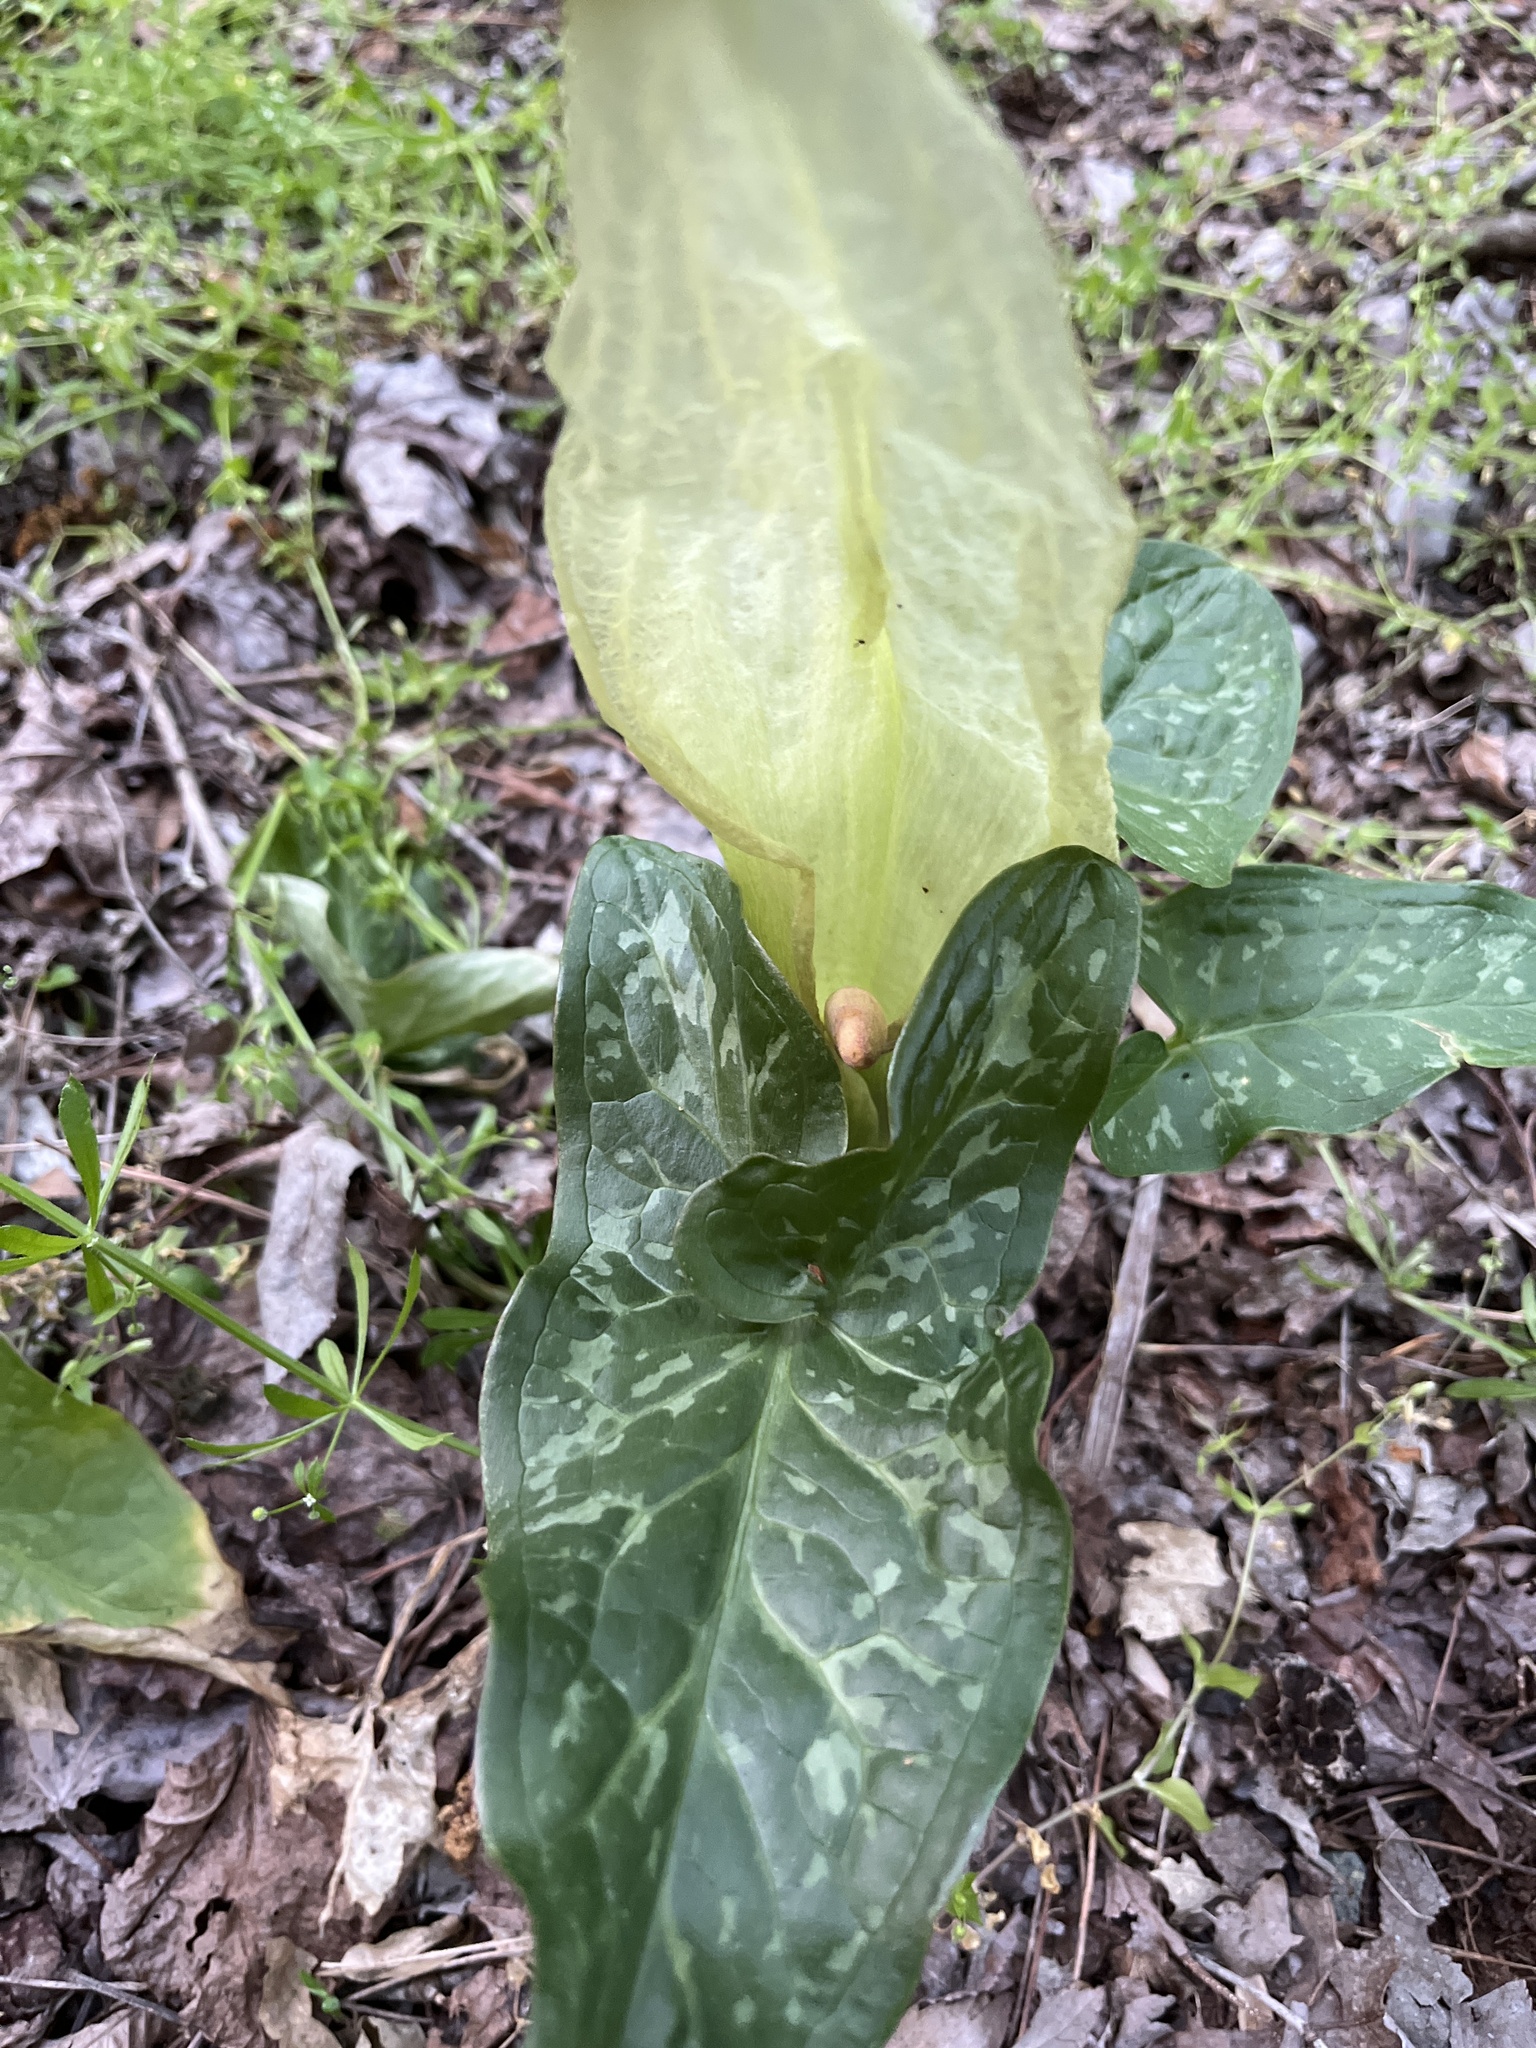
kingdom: Plantae
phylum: Tracheophyta
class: Liliopsida
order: Alismatales
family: Araceae
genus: Arum
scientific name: Arum italicum
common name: Italian lords-and-ladies
